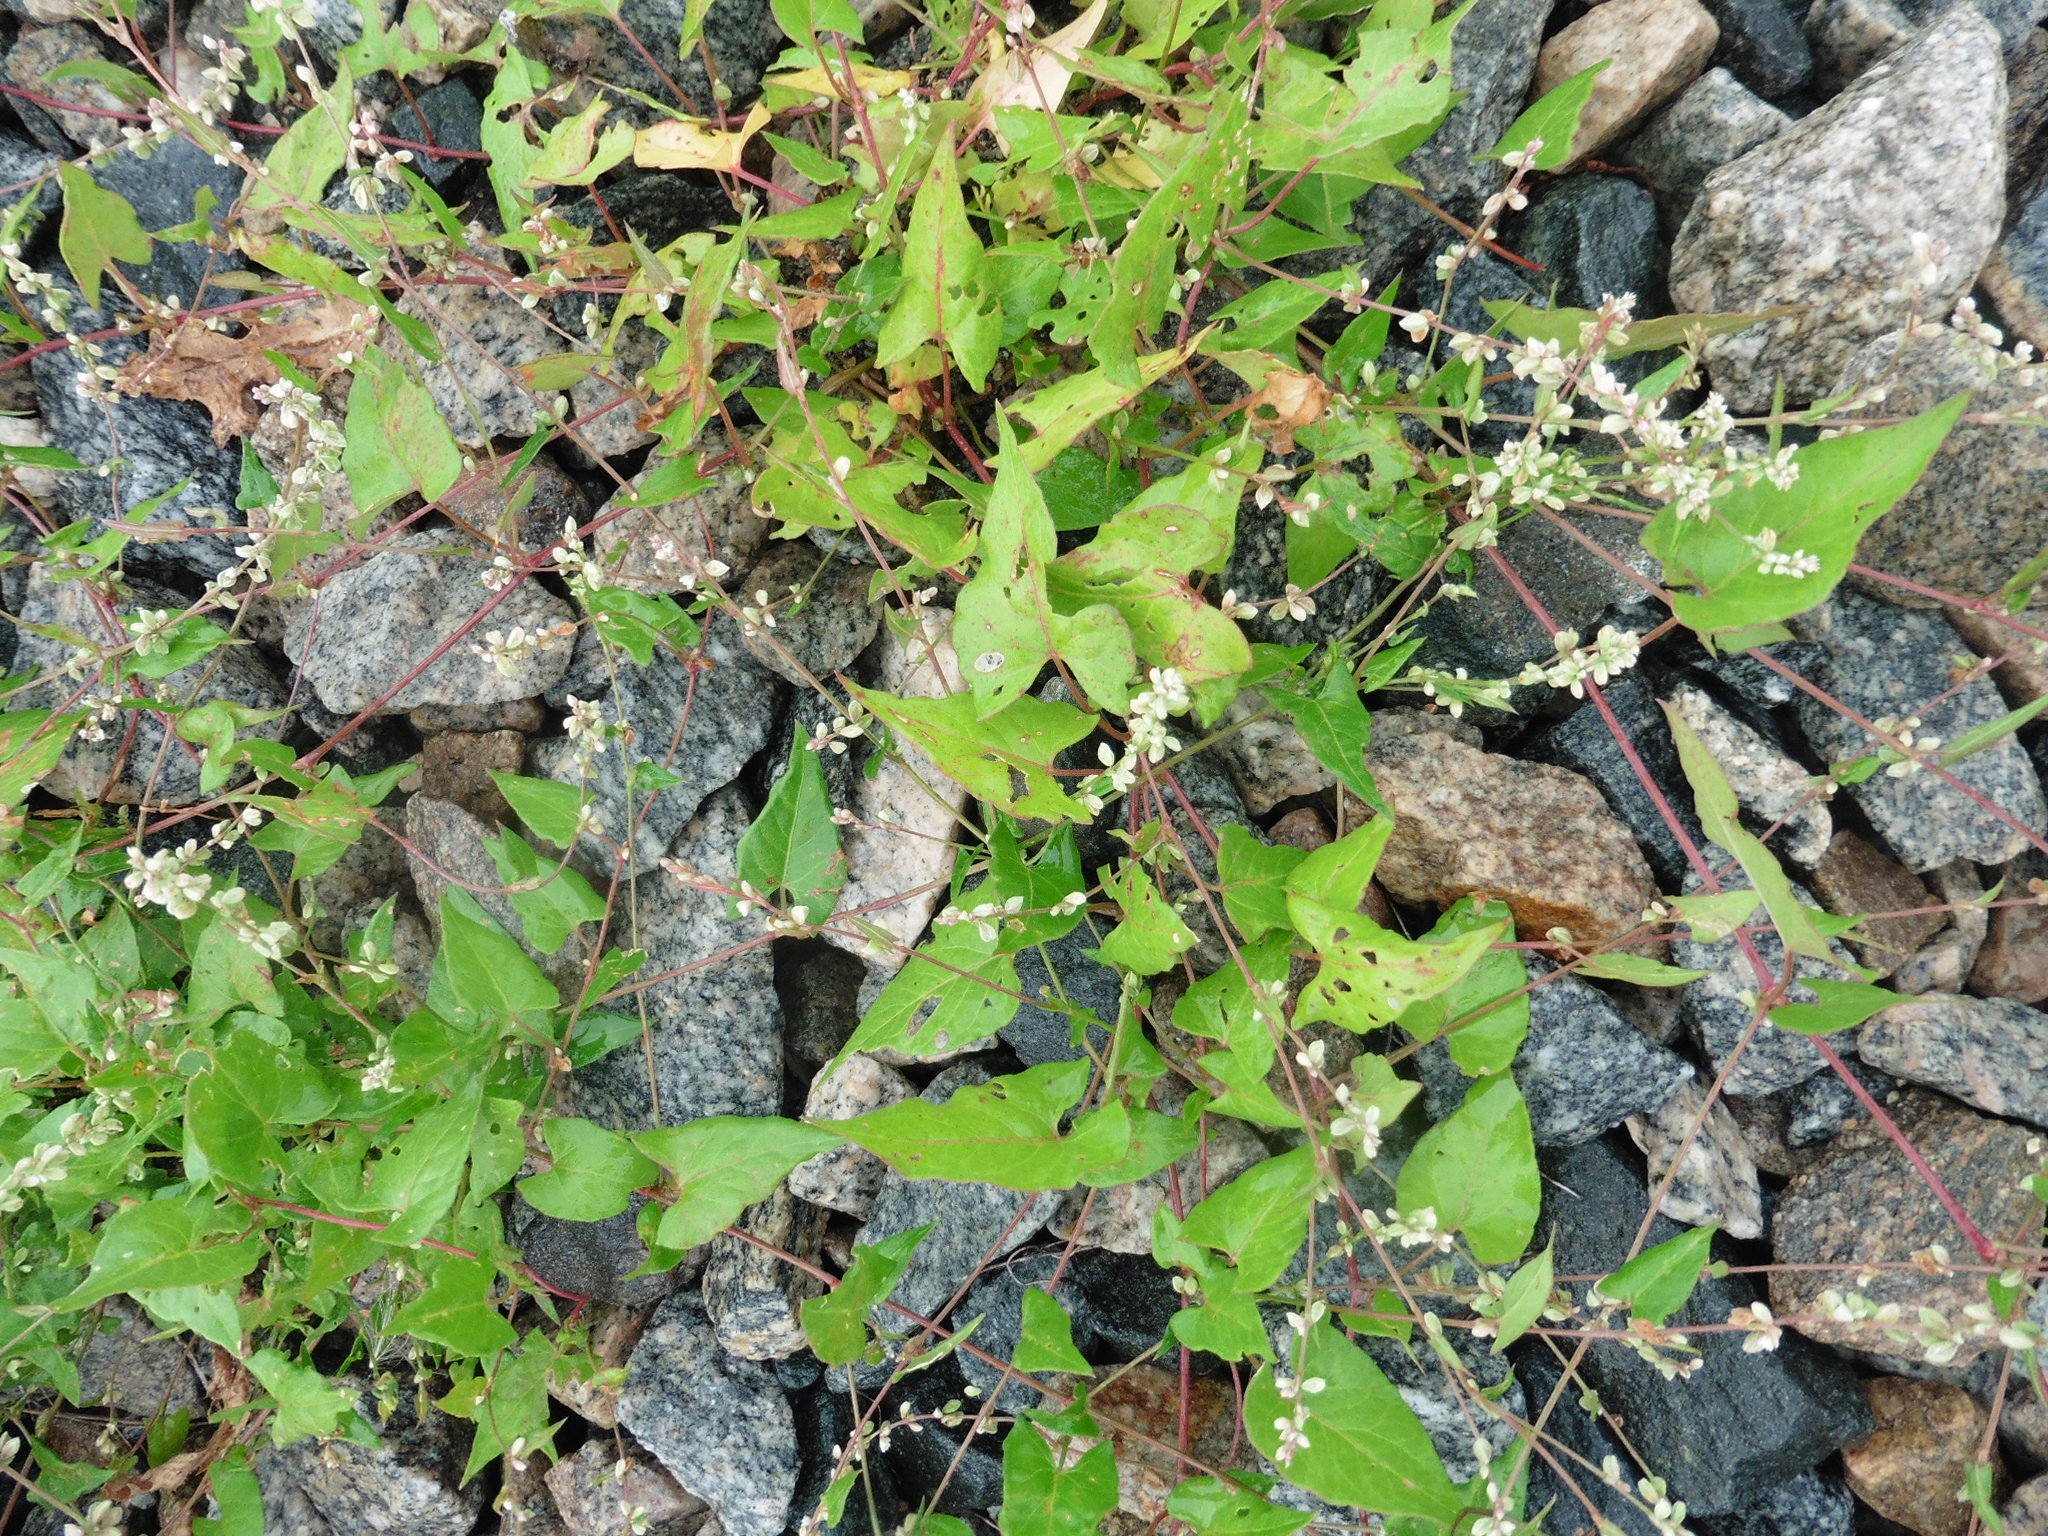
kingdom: Plantae
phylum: Tracheophyta
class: Magnoliopsida
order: Caryophyllales
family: Polygonaceae
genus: Fallopia
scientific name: Fallopia convolvulus
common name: Black bindweed
